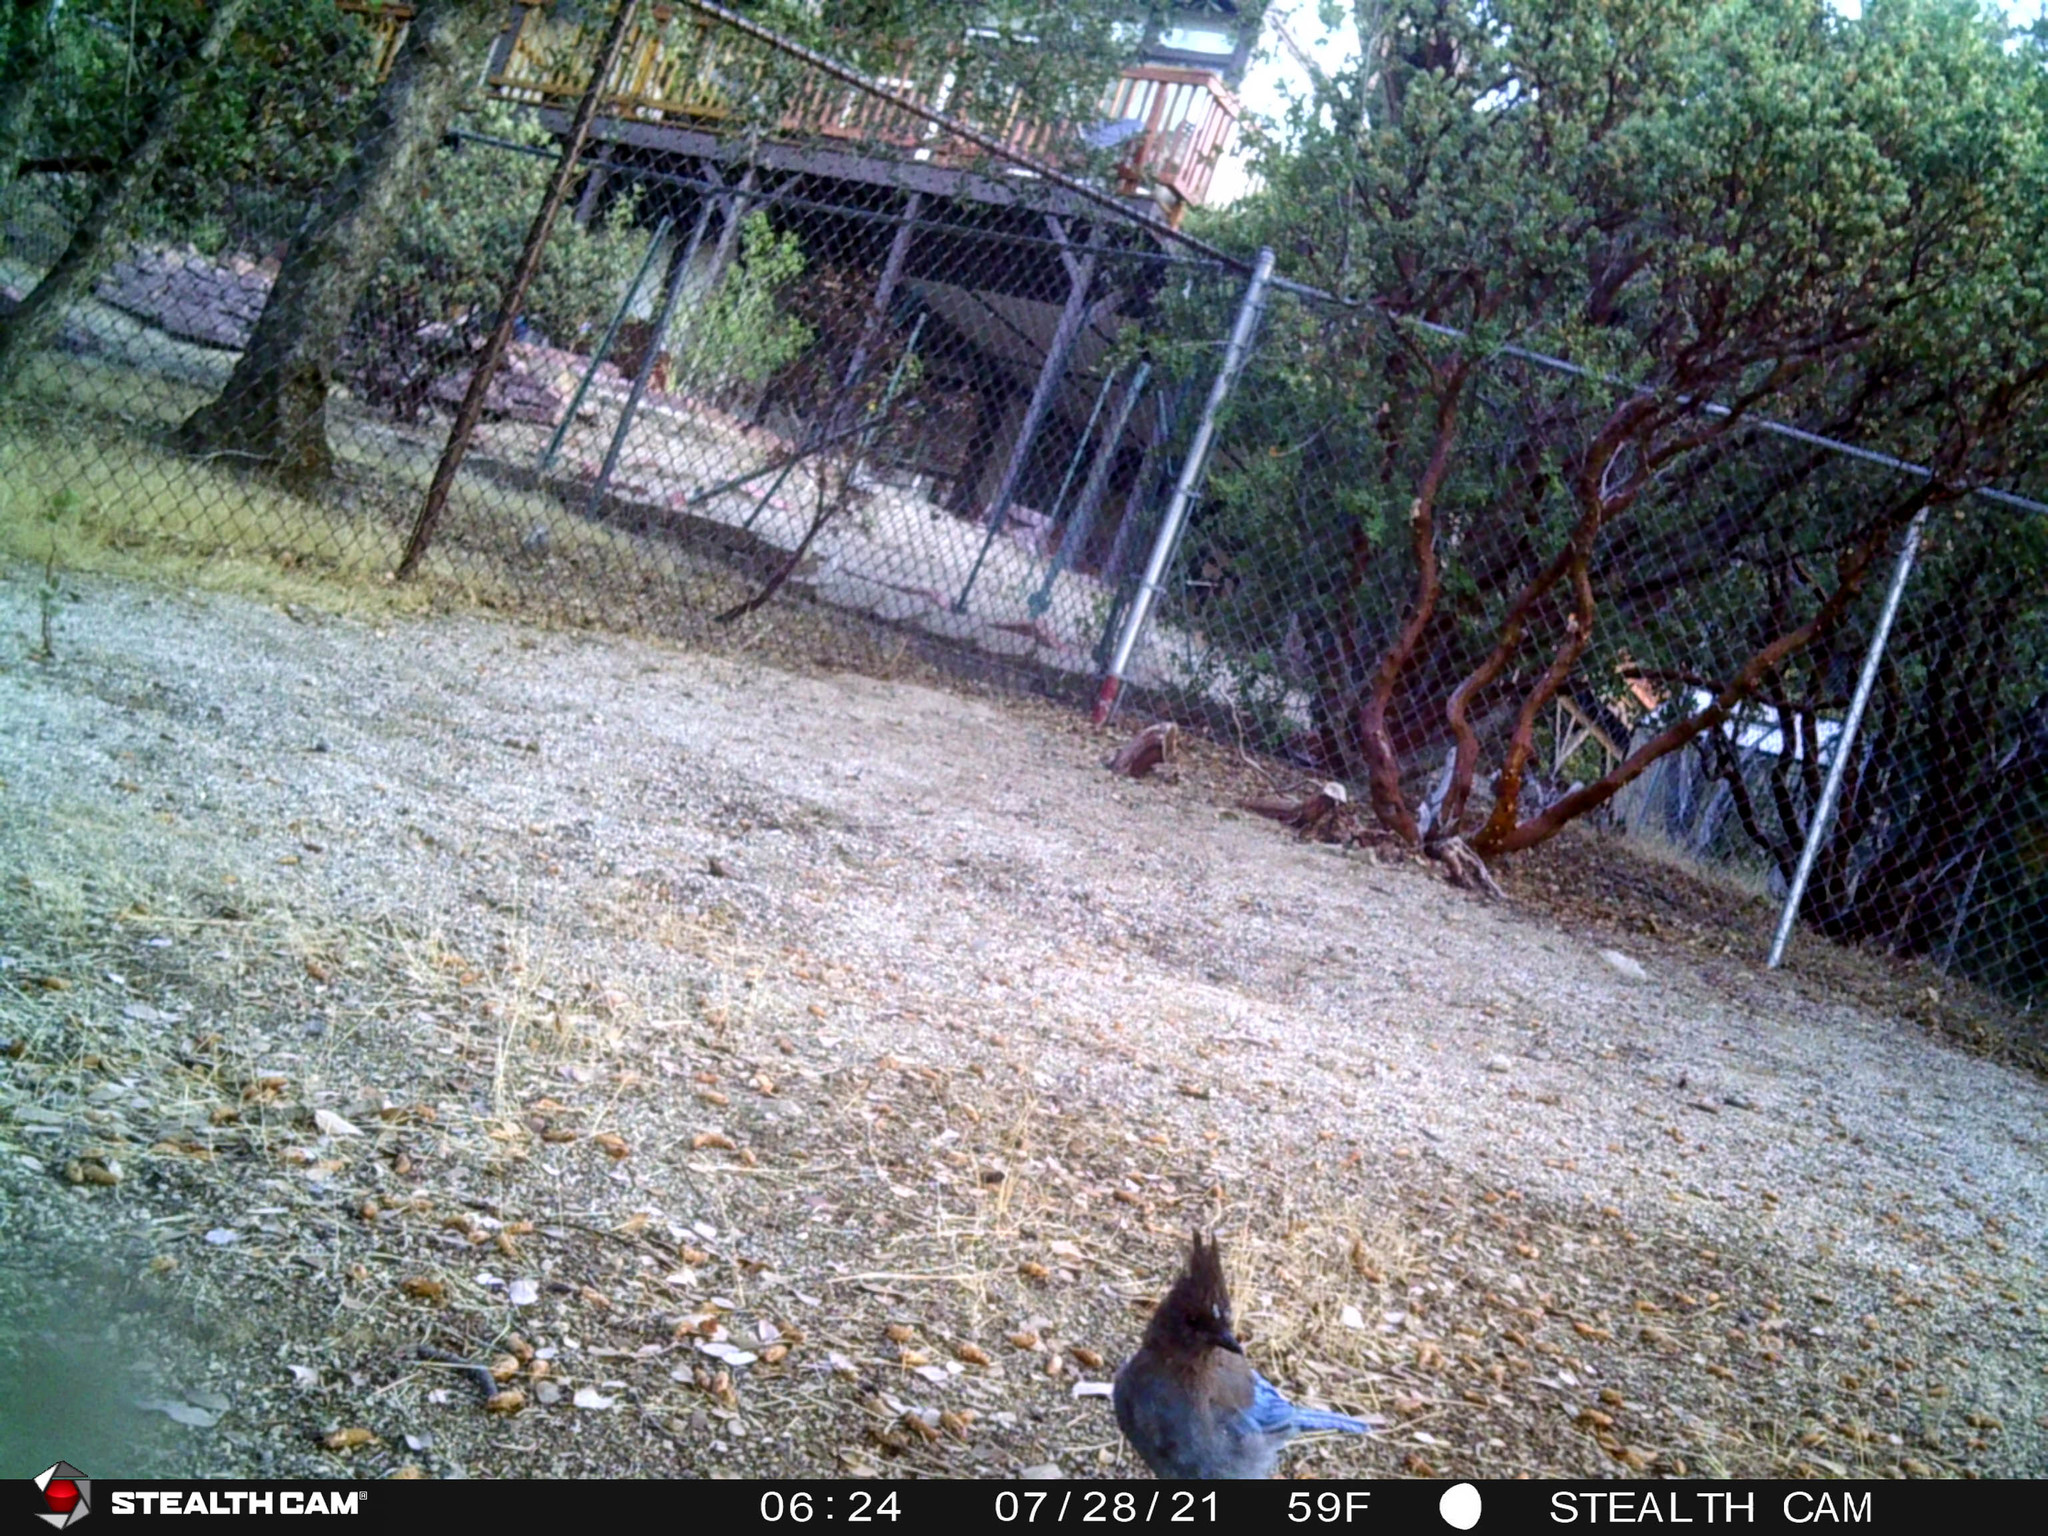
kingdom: Animalia
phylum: Chordata
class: Aves
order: Passeriformes
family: Corvidae
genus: Cyanocitta
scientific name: Cyanocitta stelleri
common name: Steller's jay
